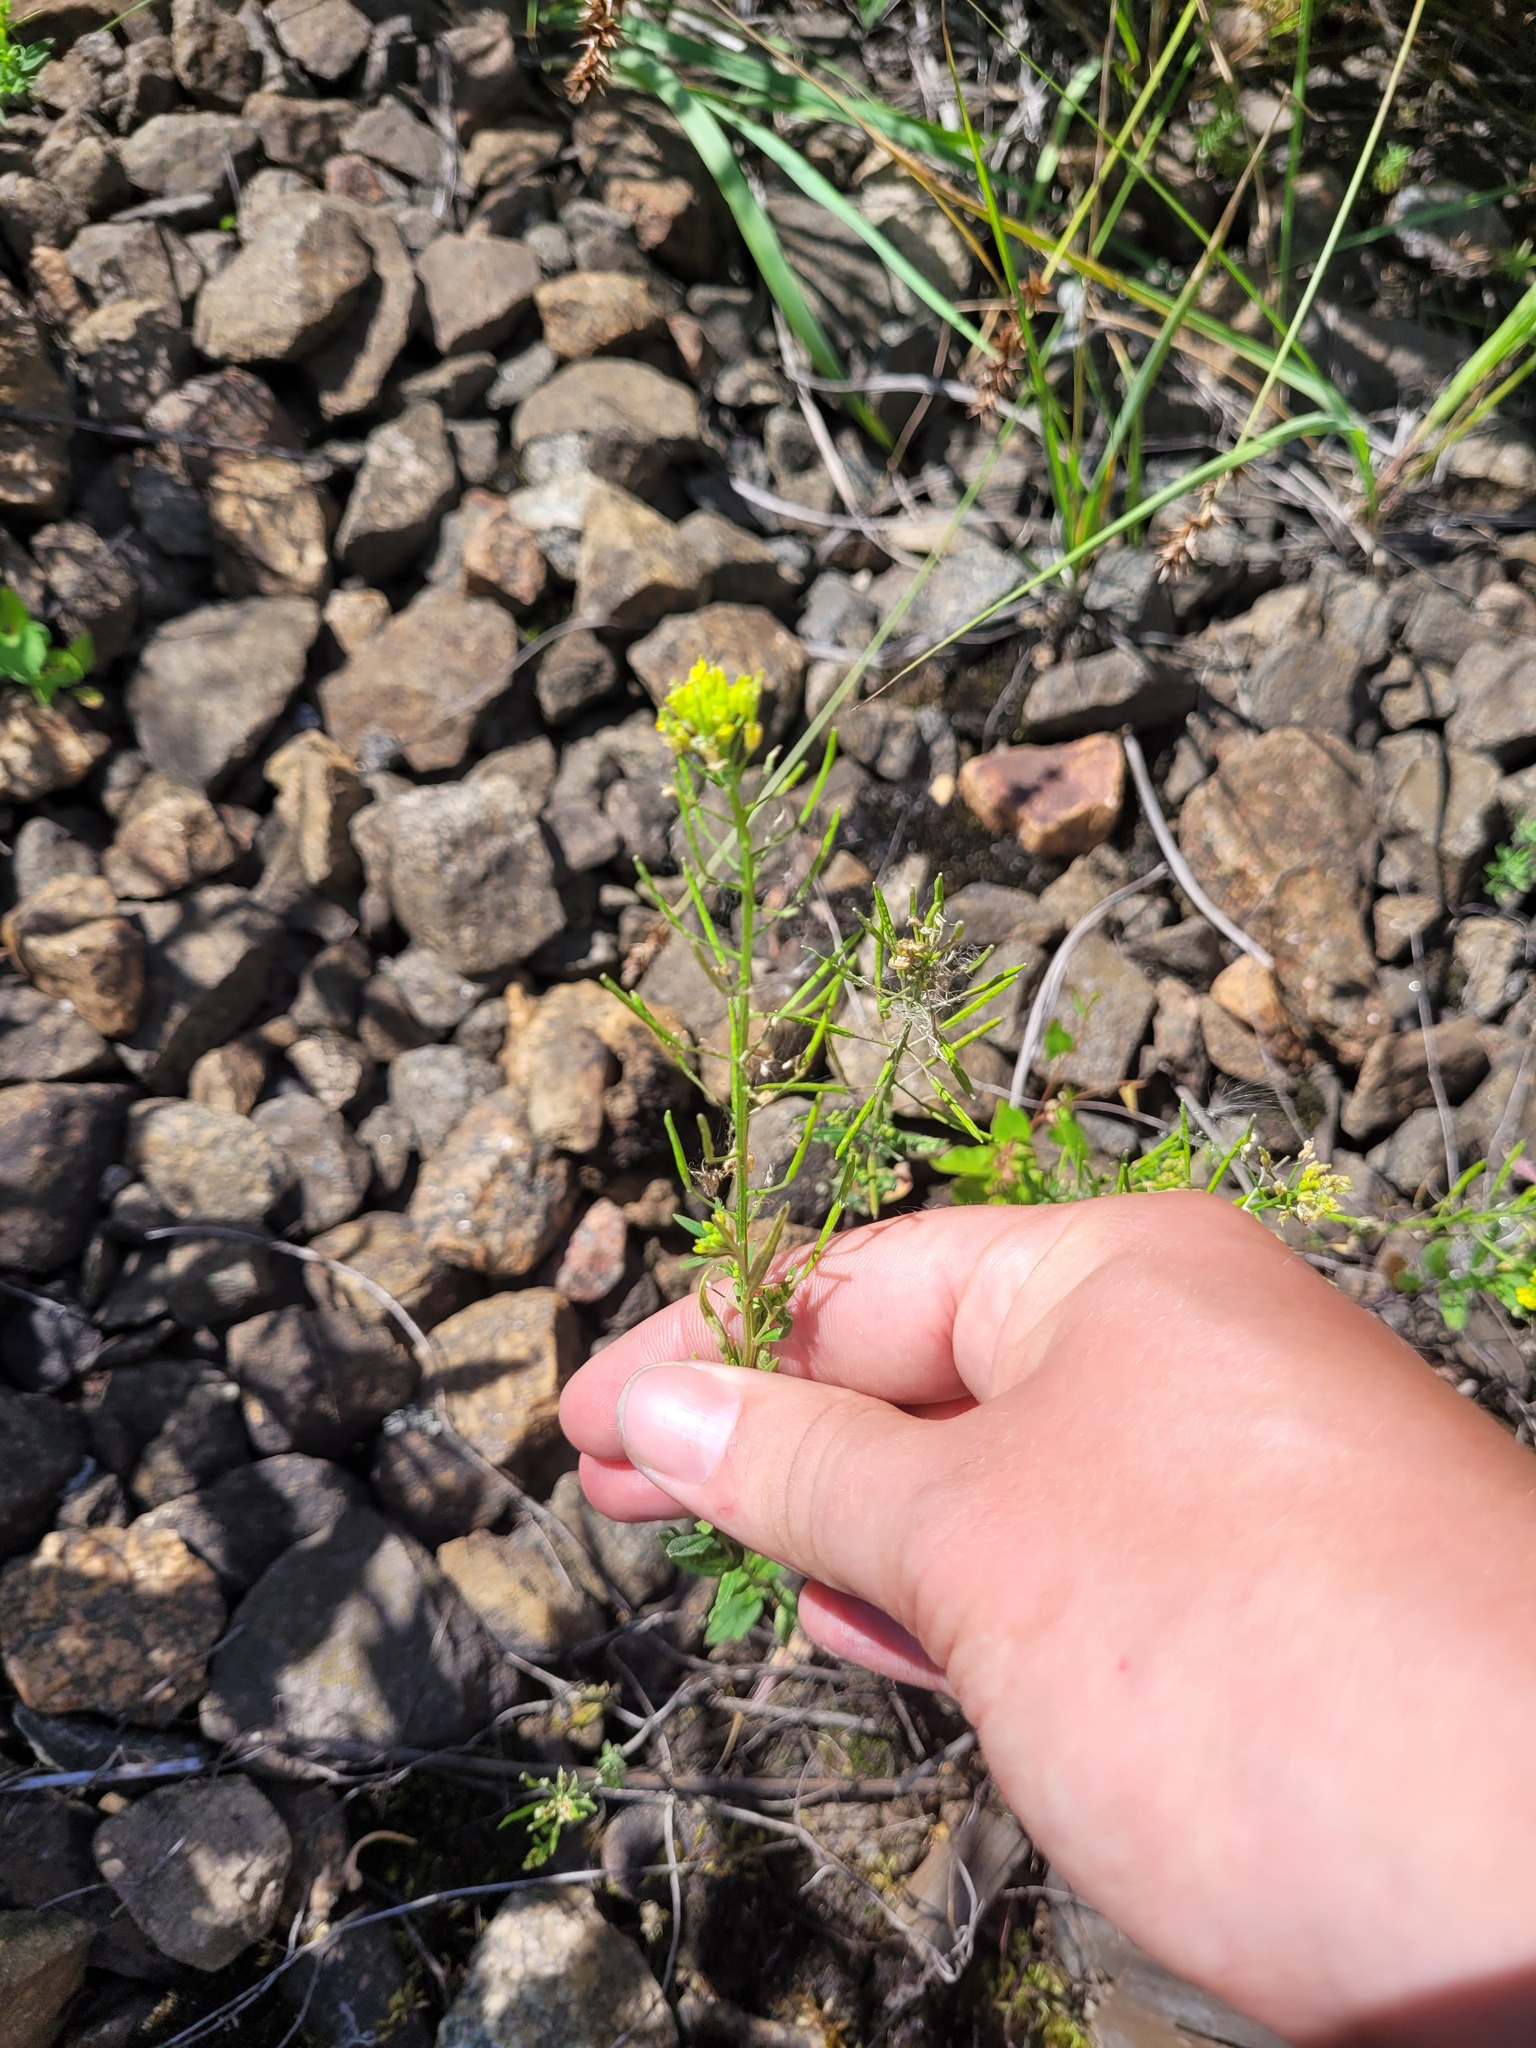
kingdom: Plantae
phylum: Tracheophyta
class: Magnoliopsida
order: Brassicales
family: Brassicaceae
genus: Erysimum
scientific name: Erysimum cheiranthoides
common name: Treacle mustard
